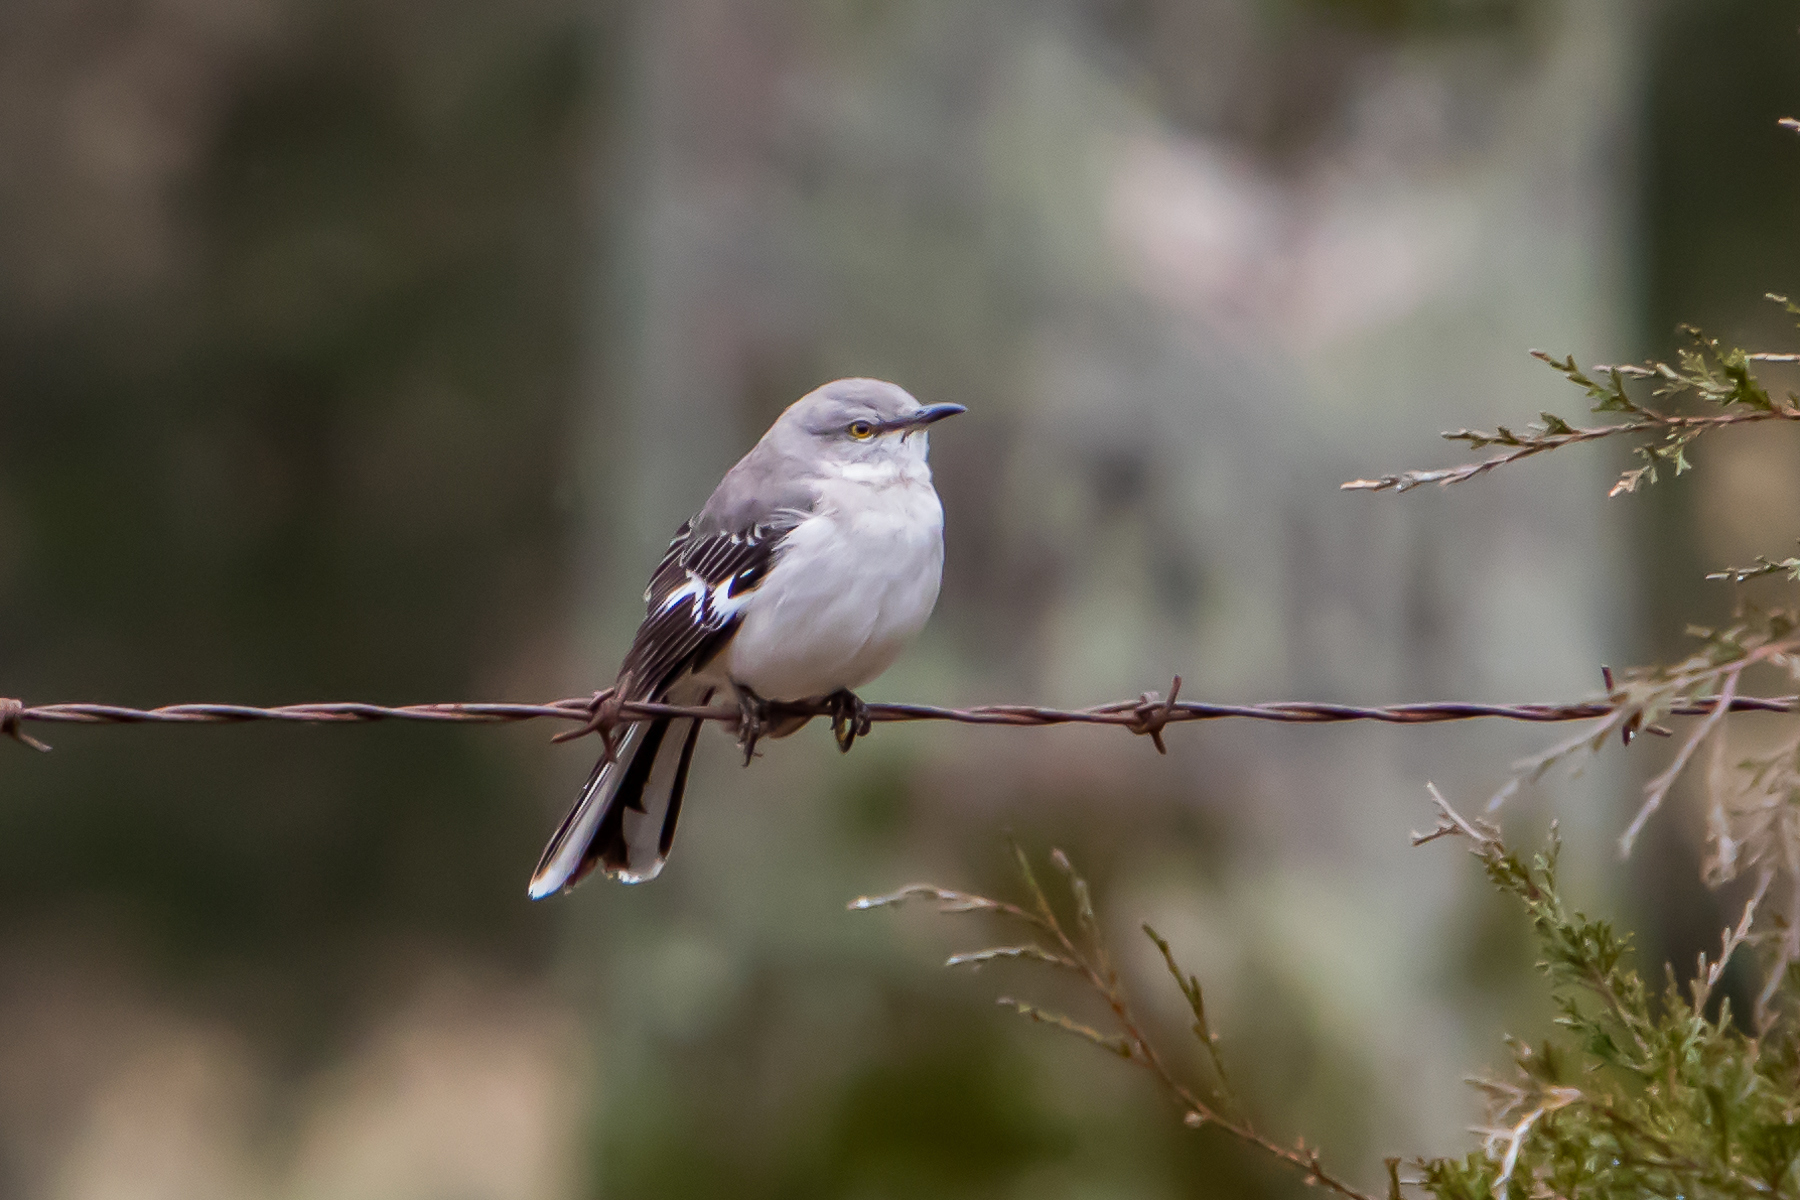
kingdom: Animalia
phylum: Chordata
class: Aves
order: Passeriformes
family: Mimidae
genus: Mimus
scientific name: Mimus polyglottos
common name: Northern mockingbird
